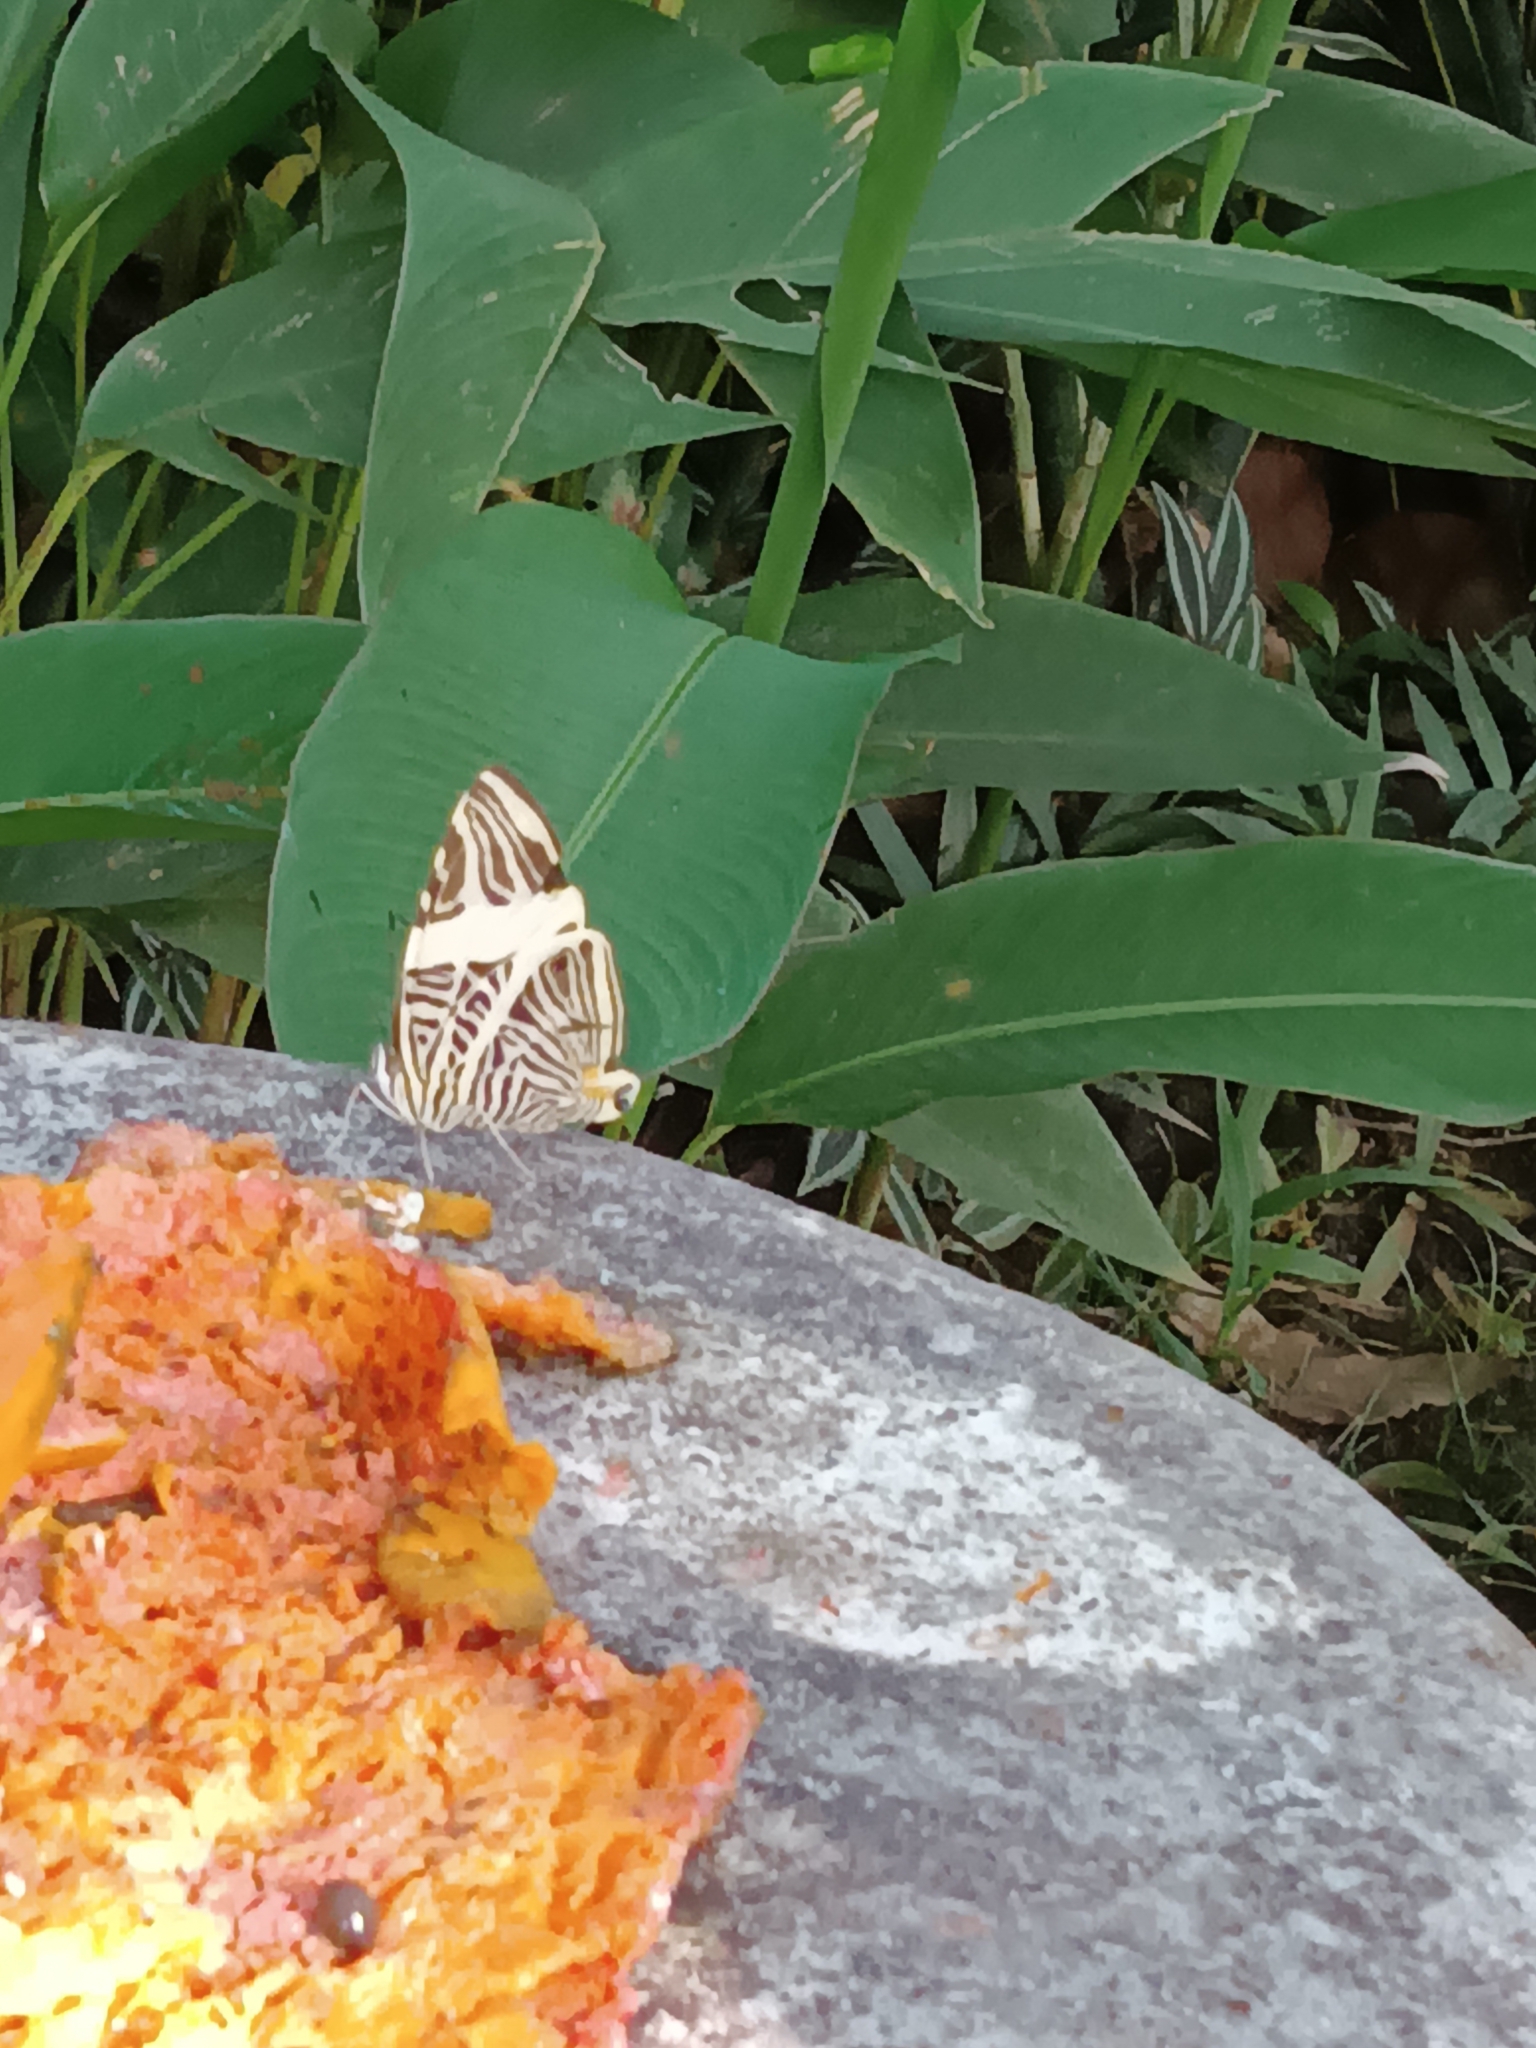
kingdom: Animalia
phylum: Arthropoda
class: Insecta
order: Lepidoptera
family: Nymphalidae
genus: Colobura
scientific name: Colobura dirce
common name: Dirce beauty
